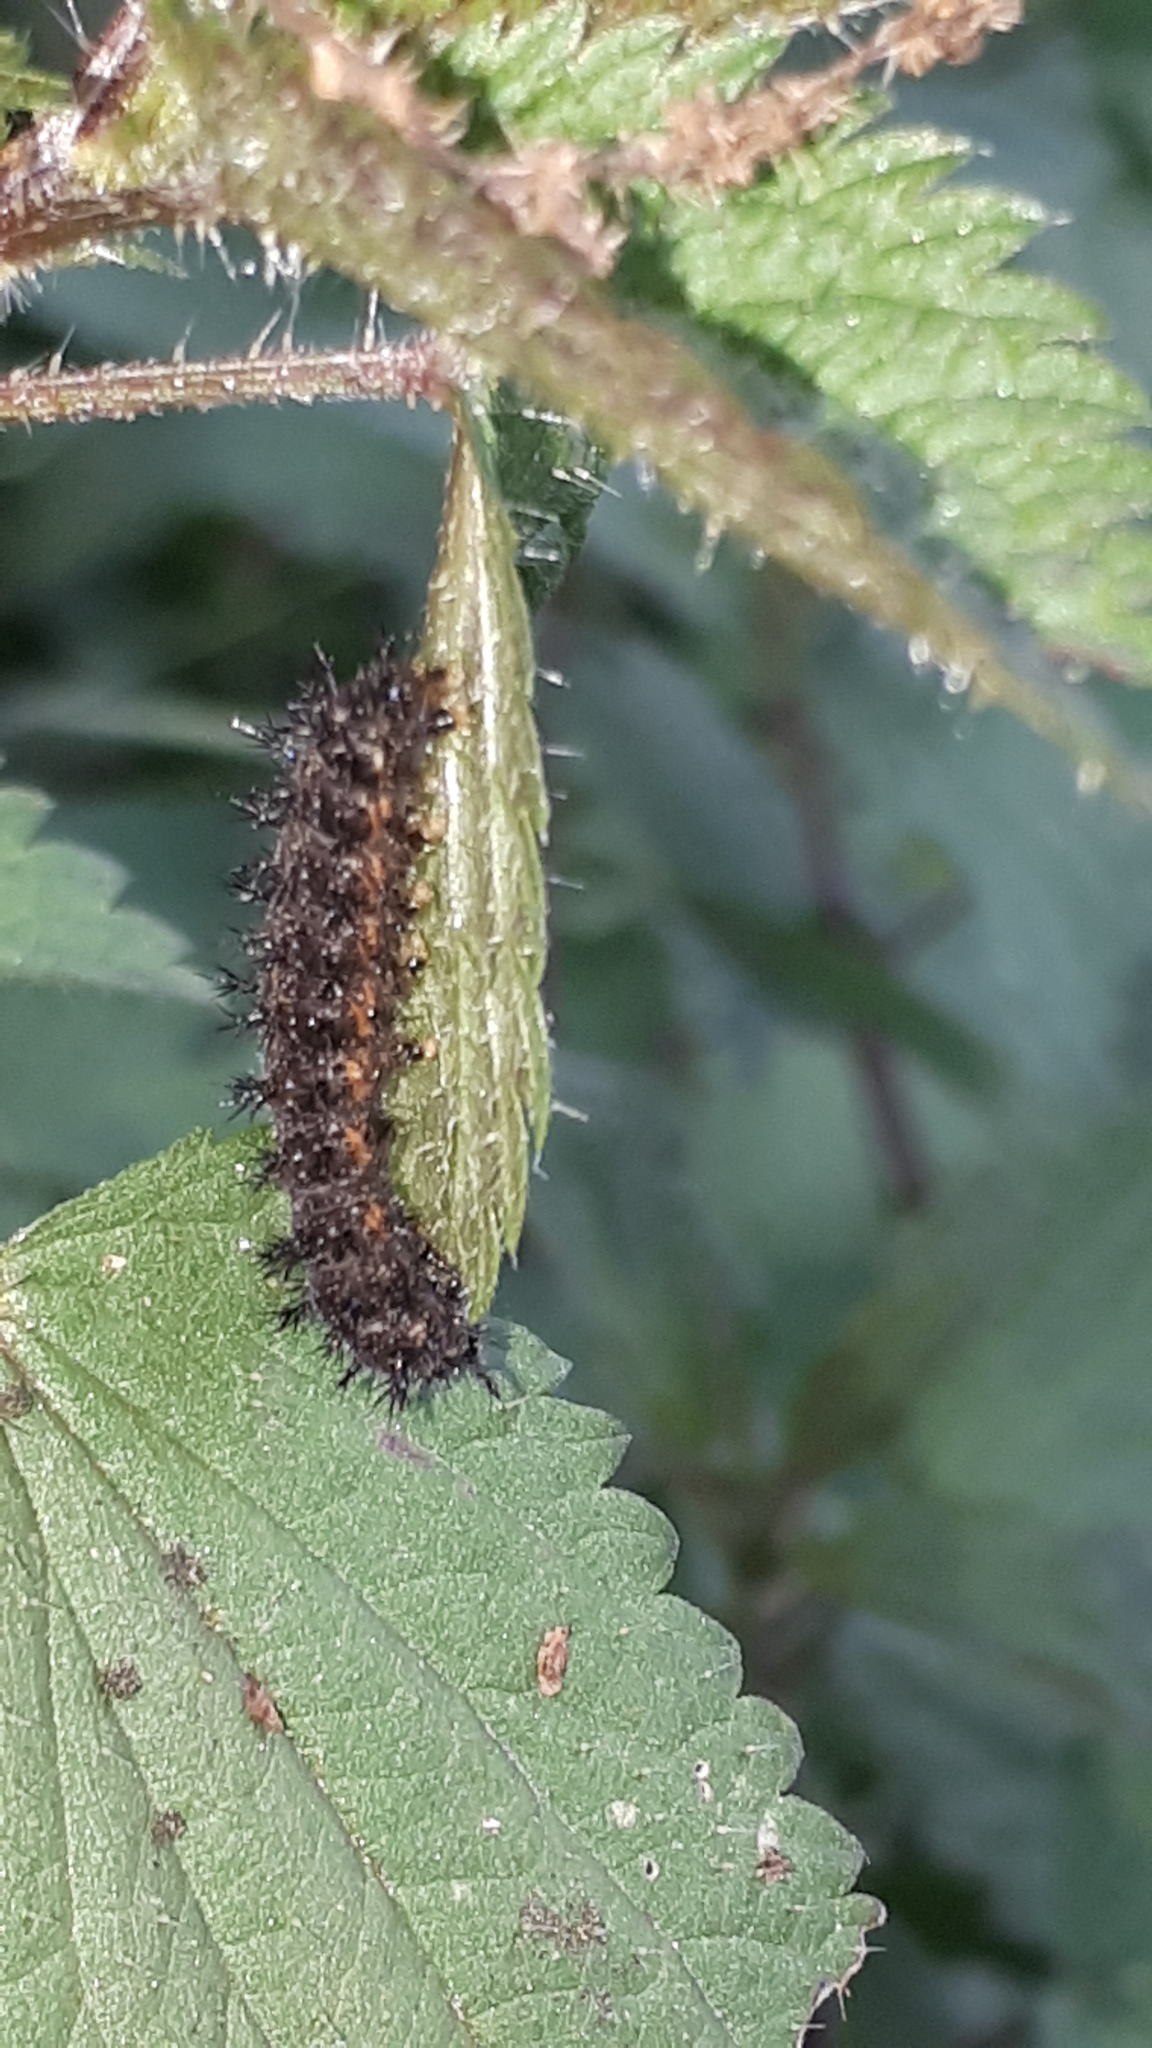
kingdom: Animalia
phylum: Arthropoda
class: Insecta
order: Lepidoptera
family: Nymphalidae
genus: Araschnia
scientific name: Araschnia levana
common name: Map butterfly
